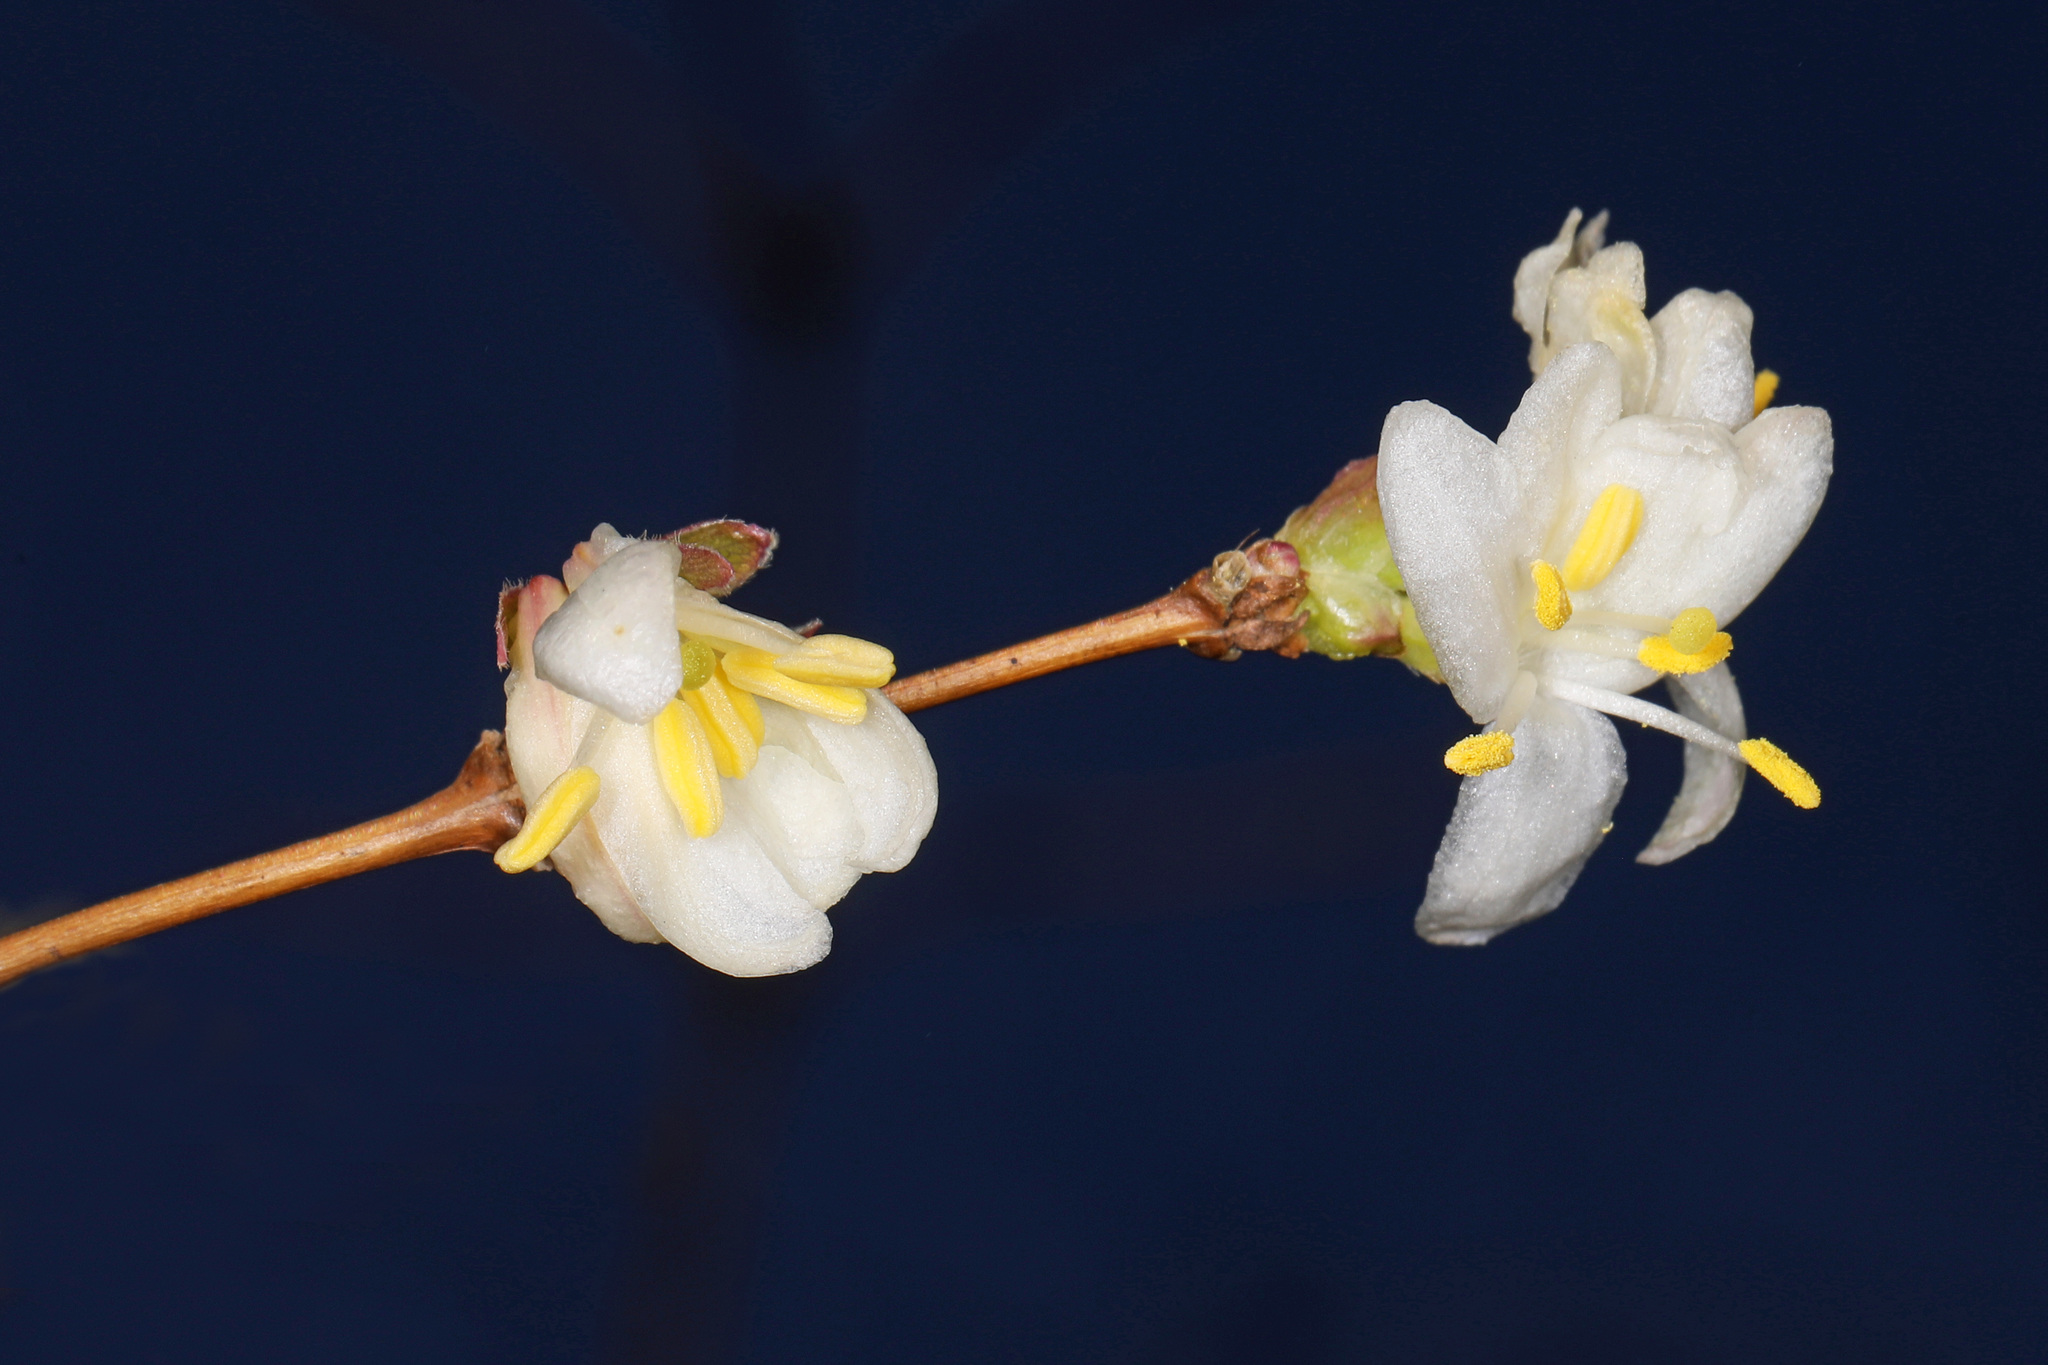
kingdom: Plantae
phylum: Tracheophyta
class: Magnoliopsida
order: Dipsacales
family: Caprifoliaceae
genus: Lonicera
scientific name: Lonicera fragrantissima
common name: Fragrant honeysuckle
